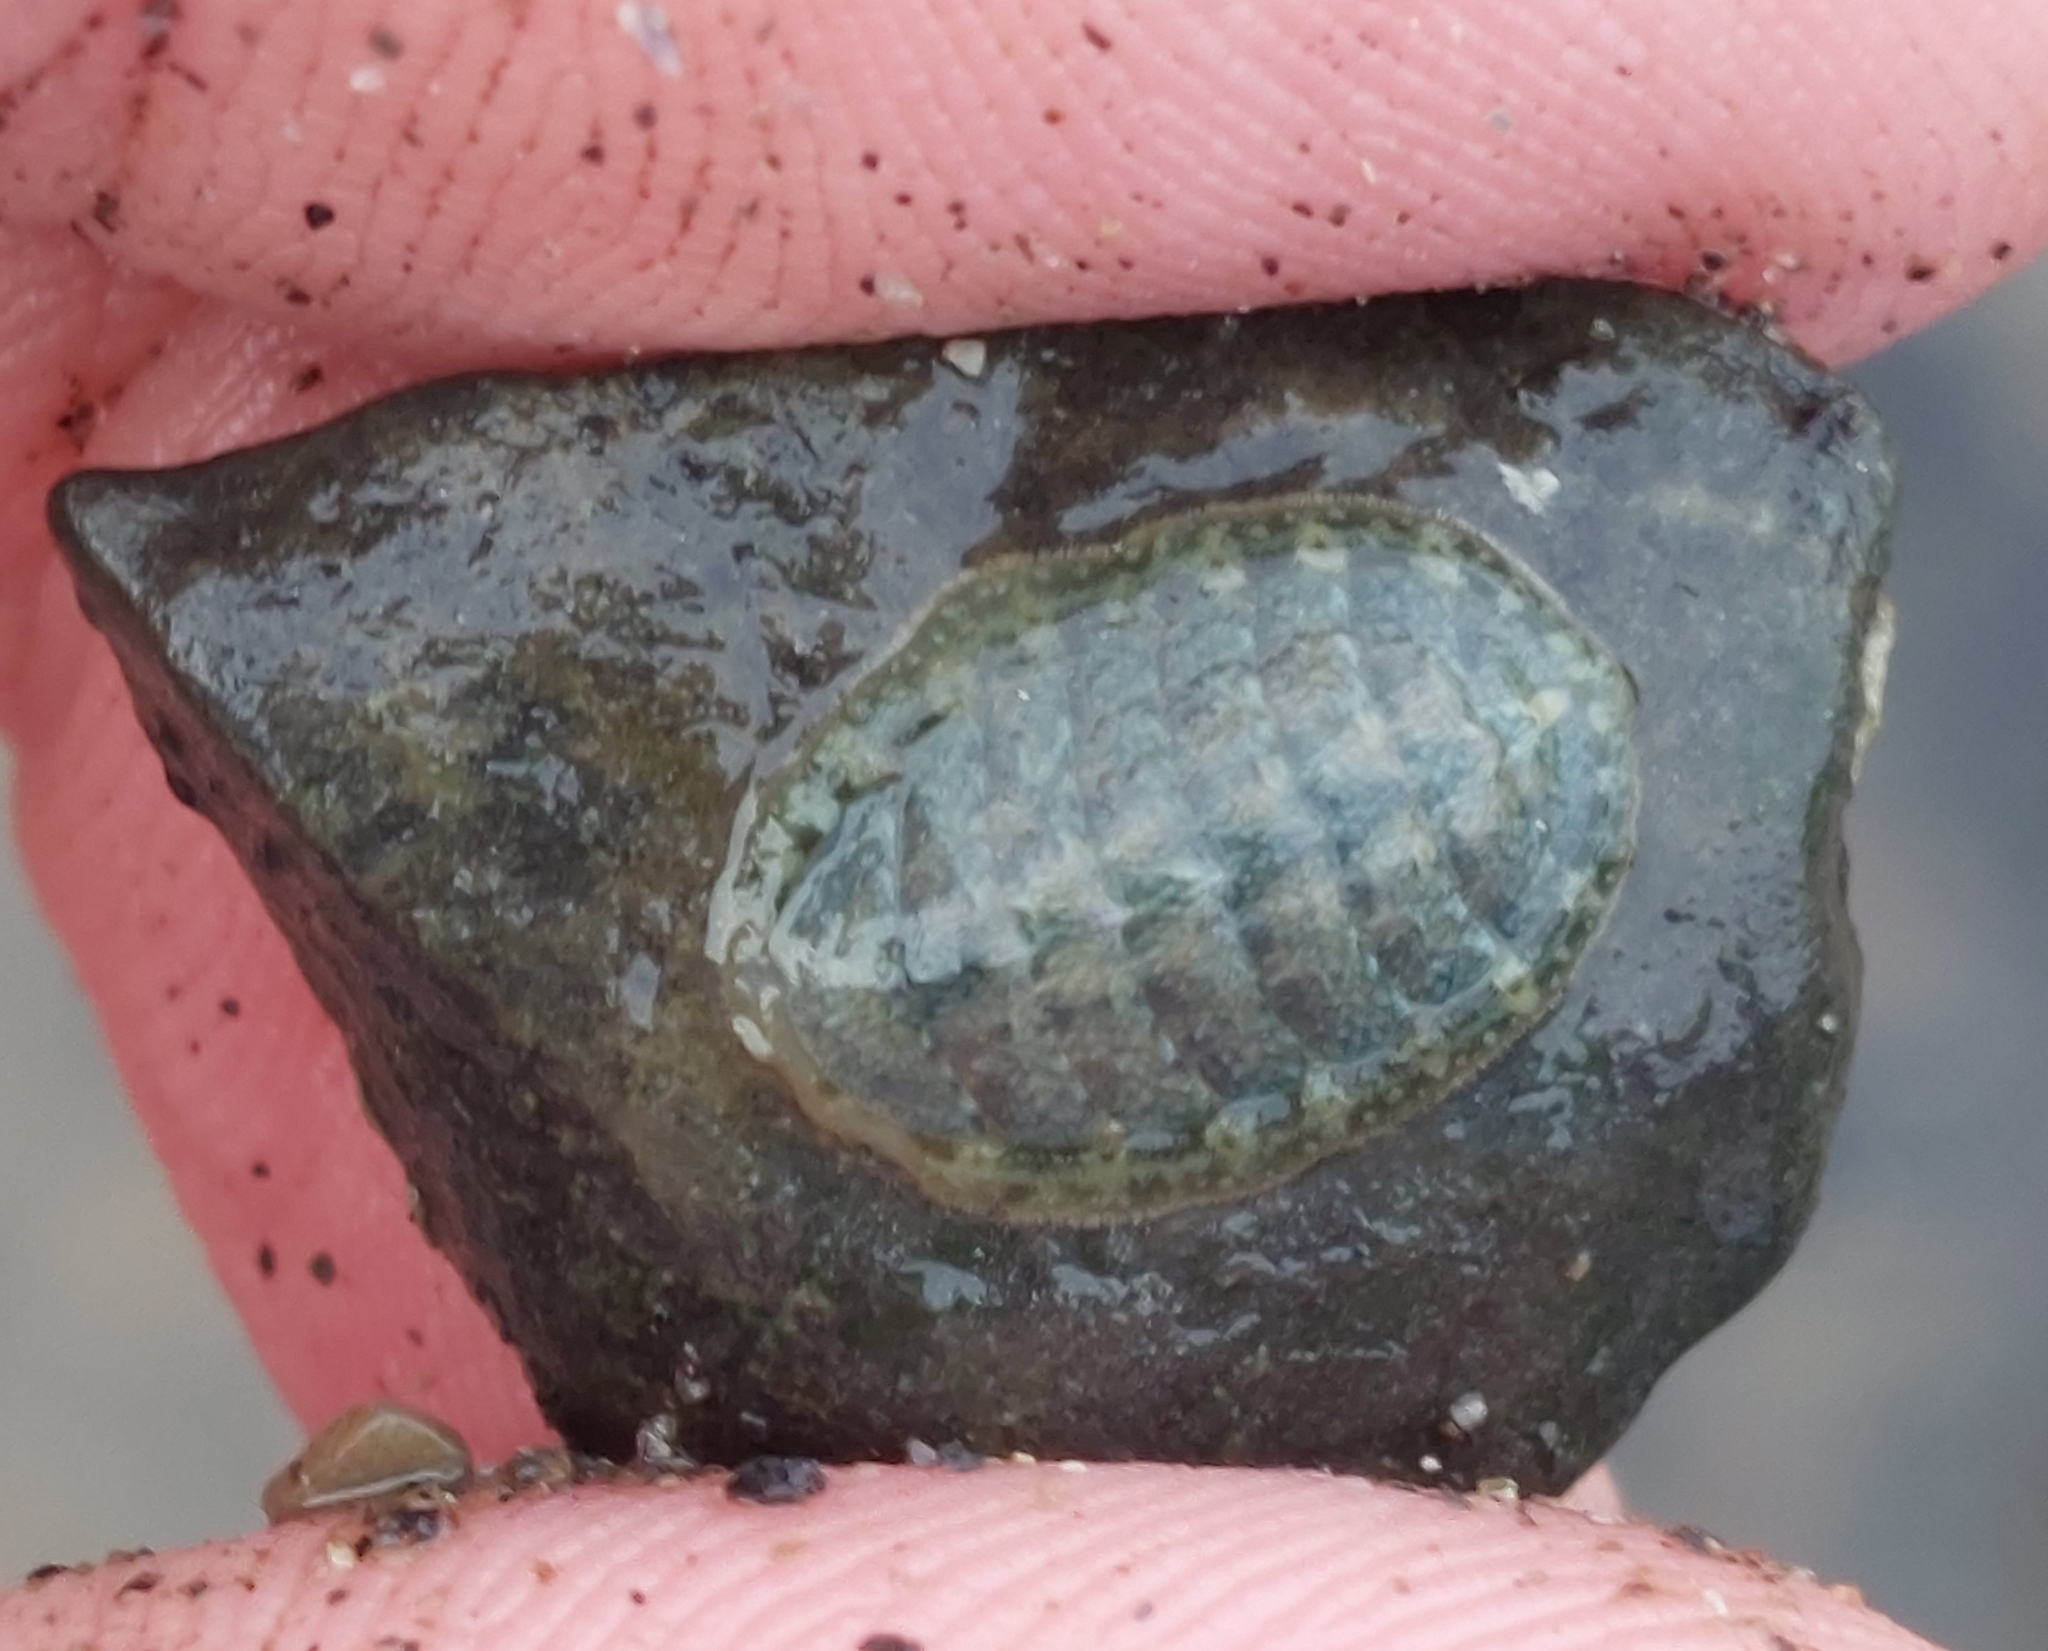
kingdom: Animalia
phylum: Mollusca
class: Polyplacophora
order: Chitonida
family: Tonicellidae
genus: Lepidochitona
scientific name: Lepidochitona cinerea
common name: Cinereous chiton
